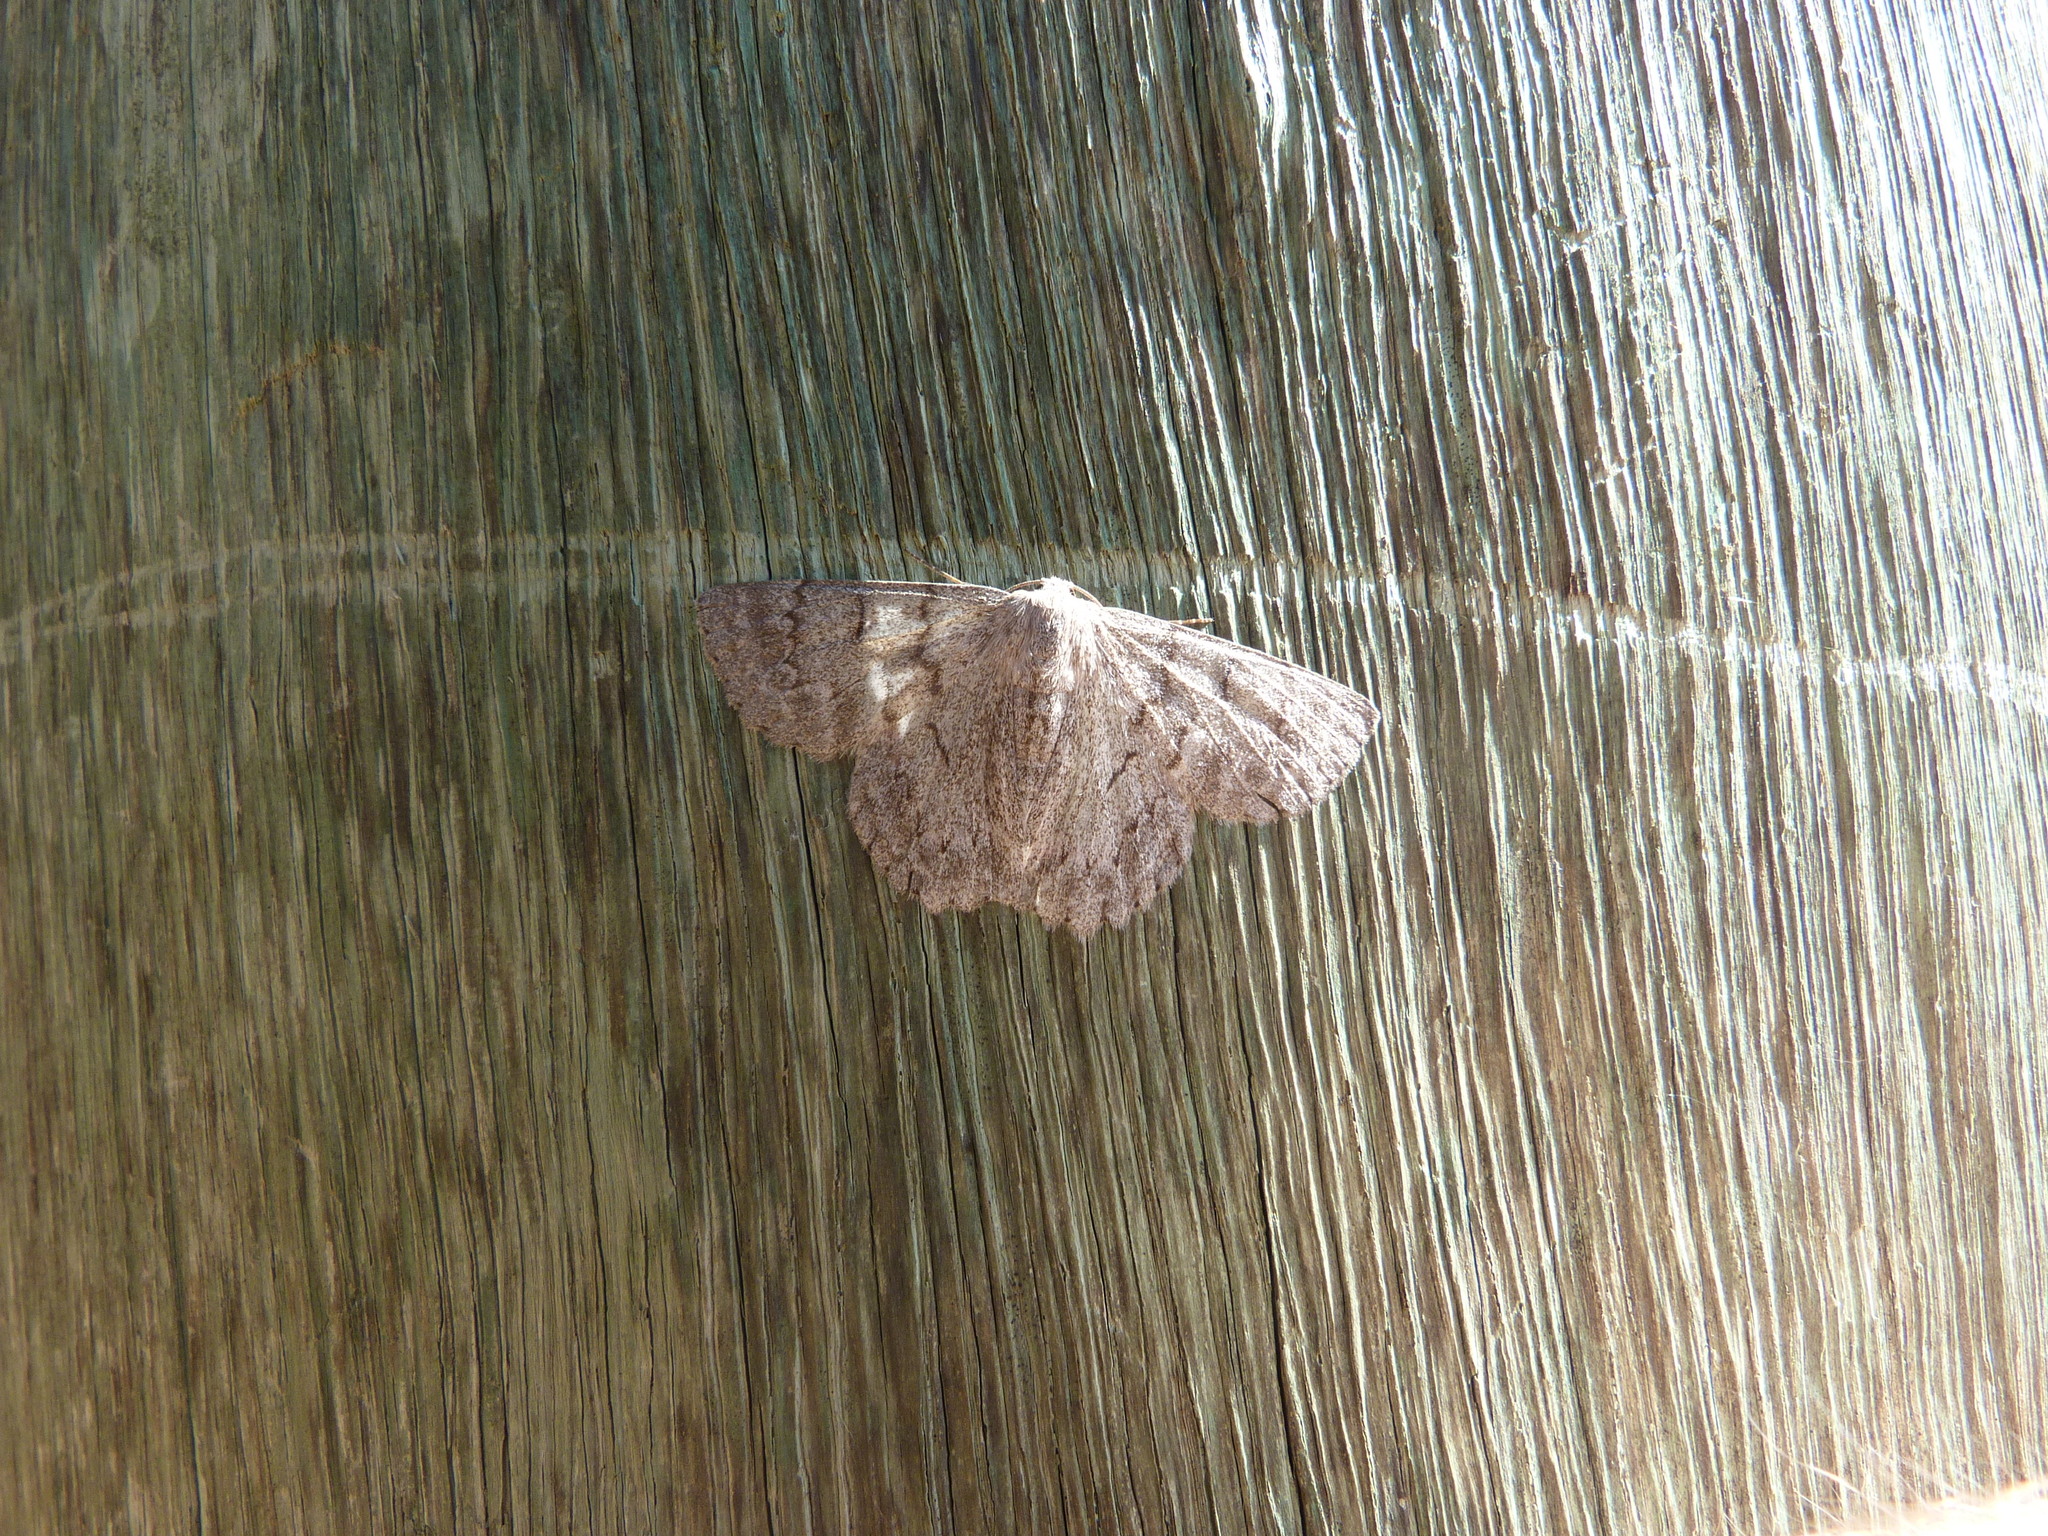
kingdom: Animalia
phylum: Arthropoda
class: Insecta
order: Lepidoptera
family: Geometridae
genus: Crypsiphona
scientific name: Crypsiphona ocultaria
